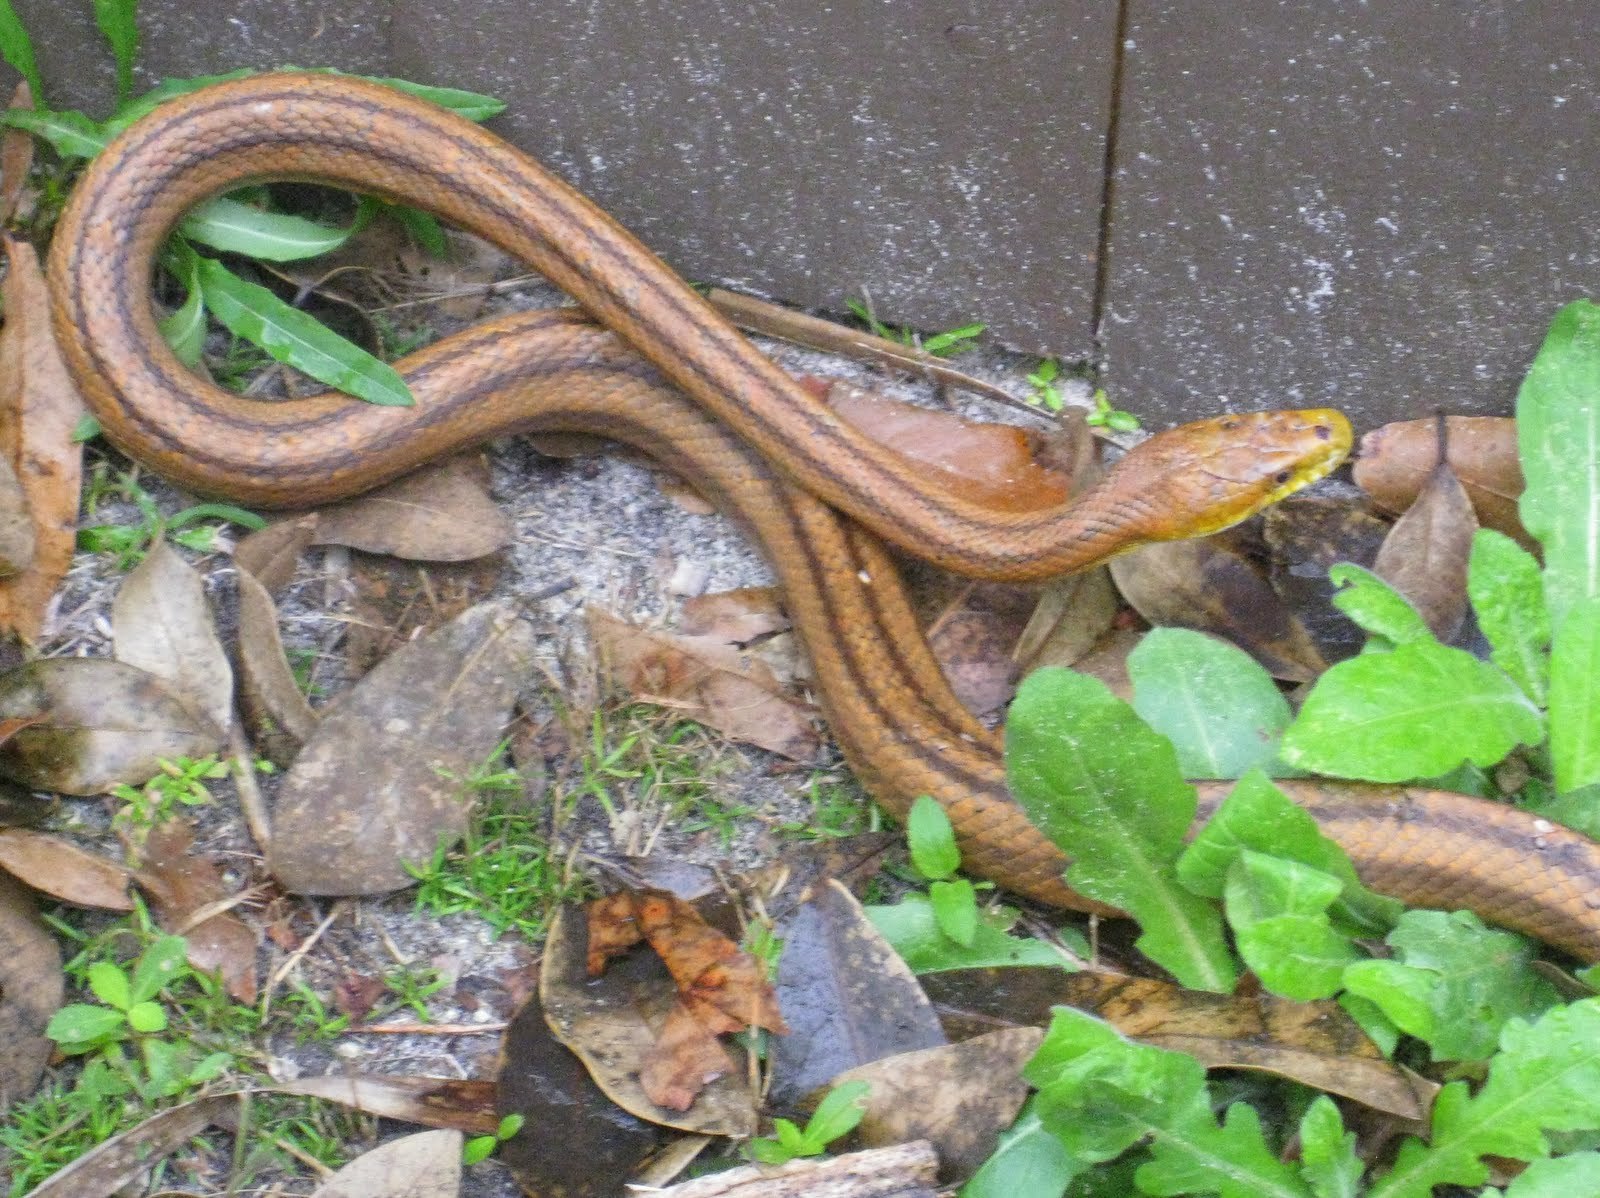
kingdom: Animalia
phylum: Chordata
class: Squamata
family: Colubridae
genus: Pantherophis
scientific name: Pantherophis alleghaniensis
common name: Eastern rat snake
